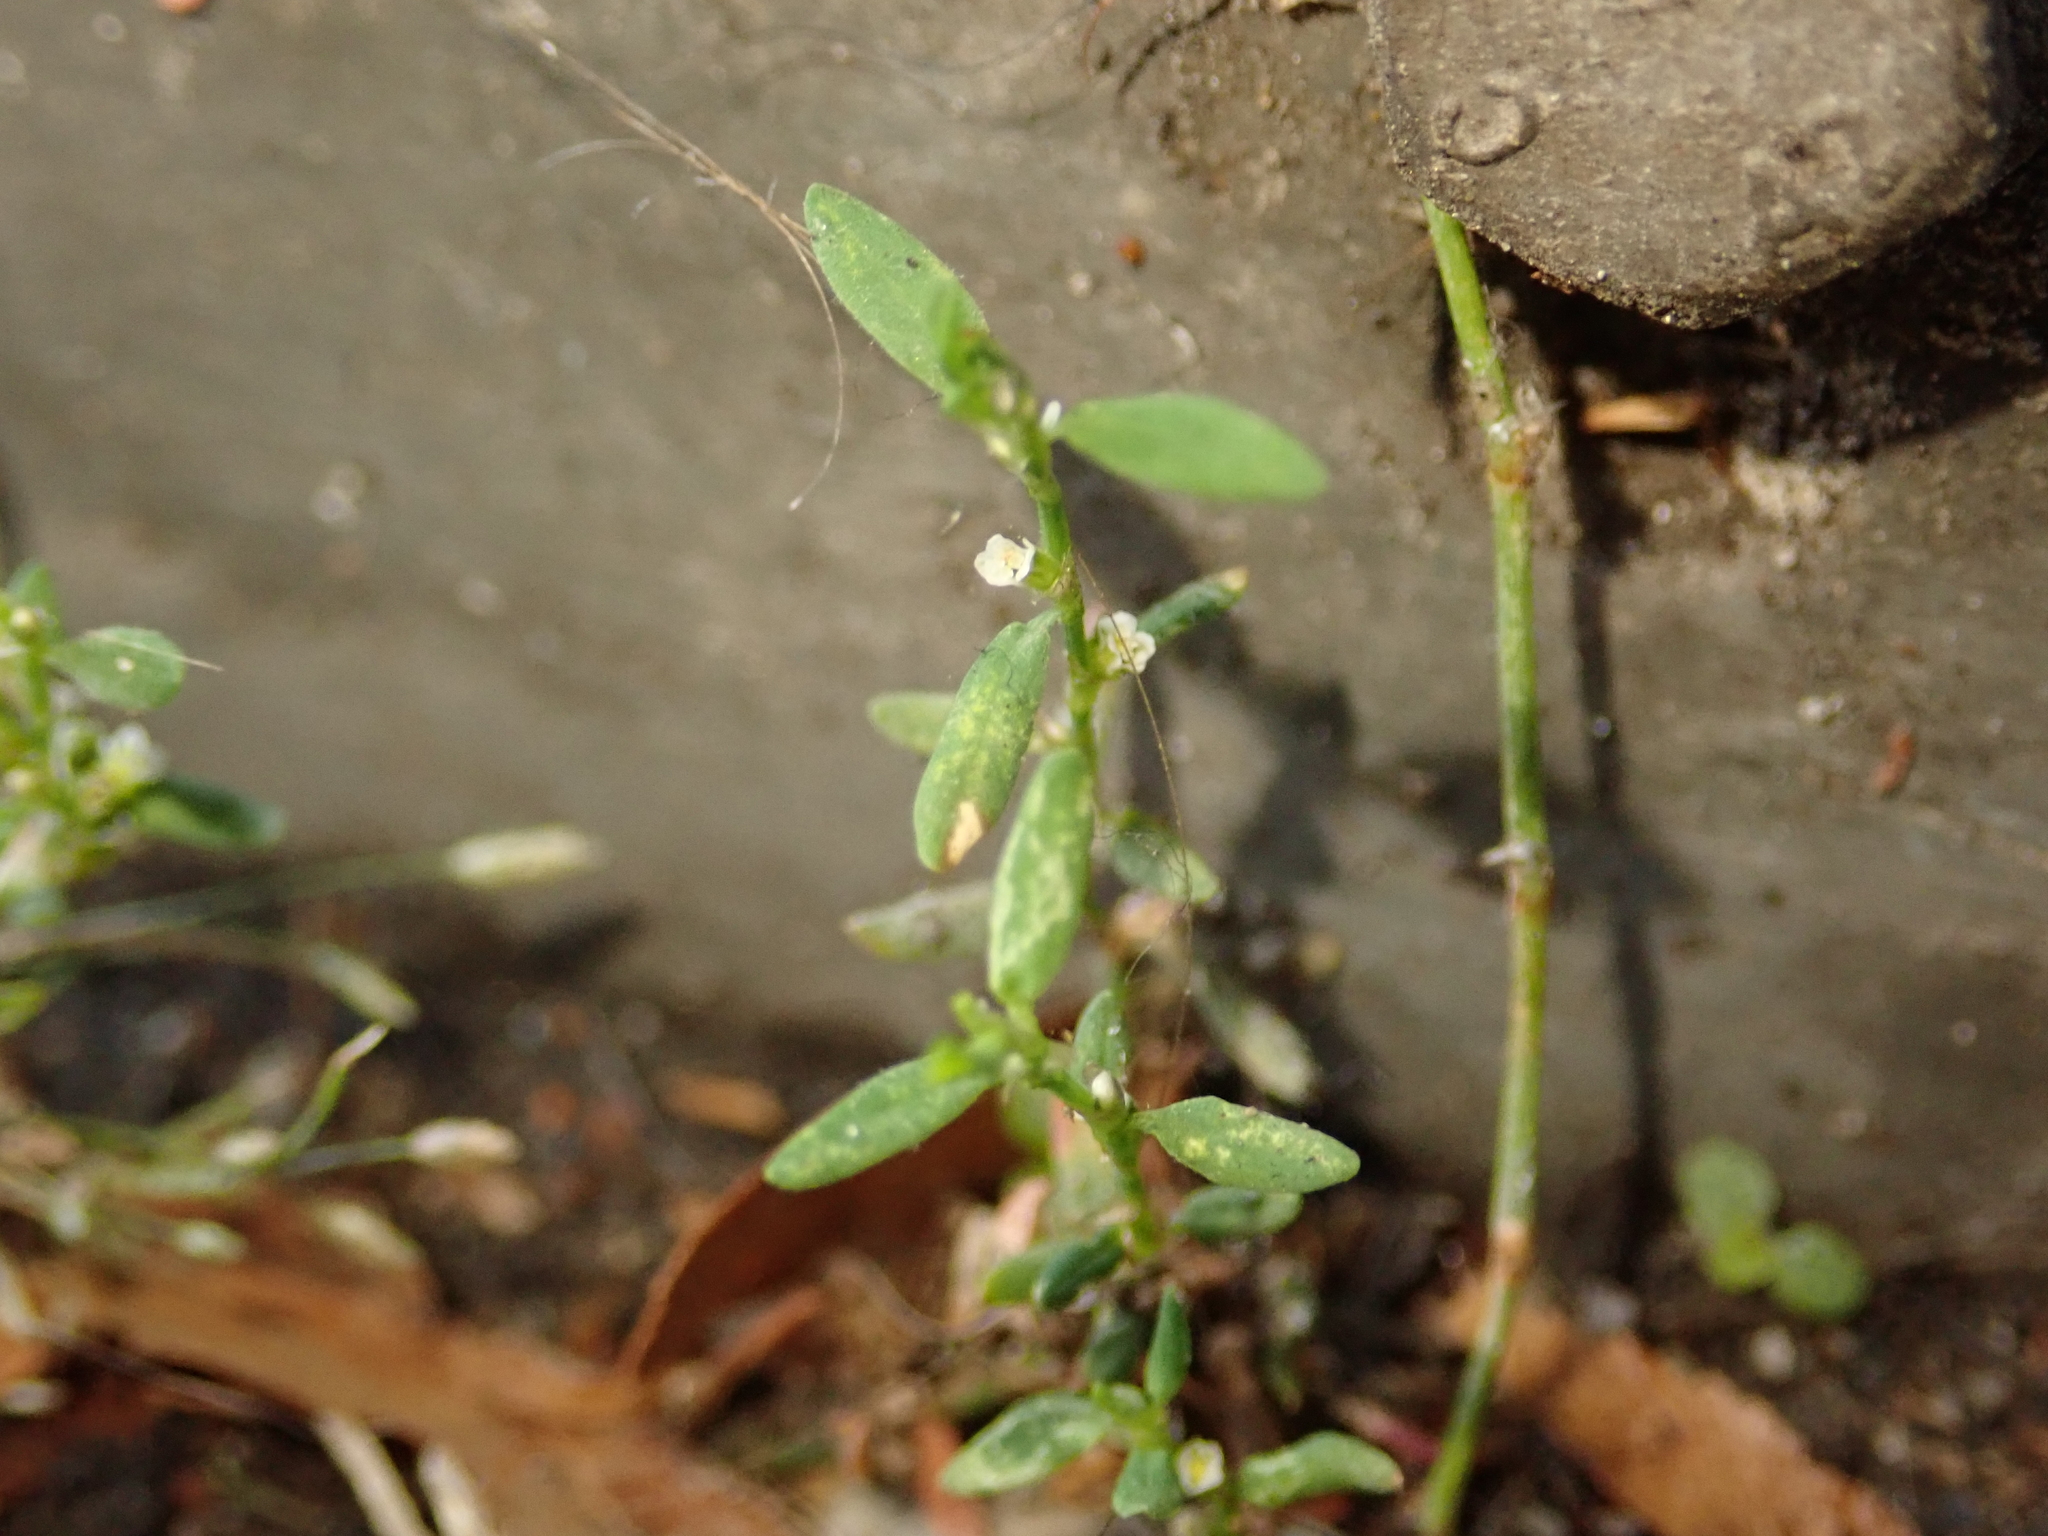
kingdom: Plantae
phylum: Tracheophyta
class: Magnoliopsida
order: Caryophyllales
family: Polygonaceae
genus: Polygonum
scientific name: Polygonum aviculare
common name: Prostrate knotweed
